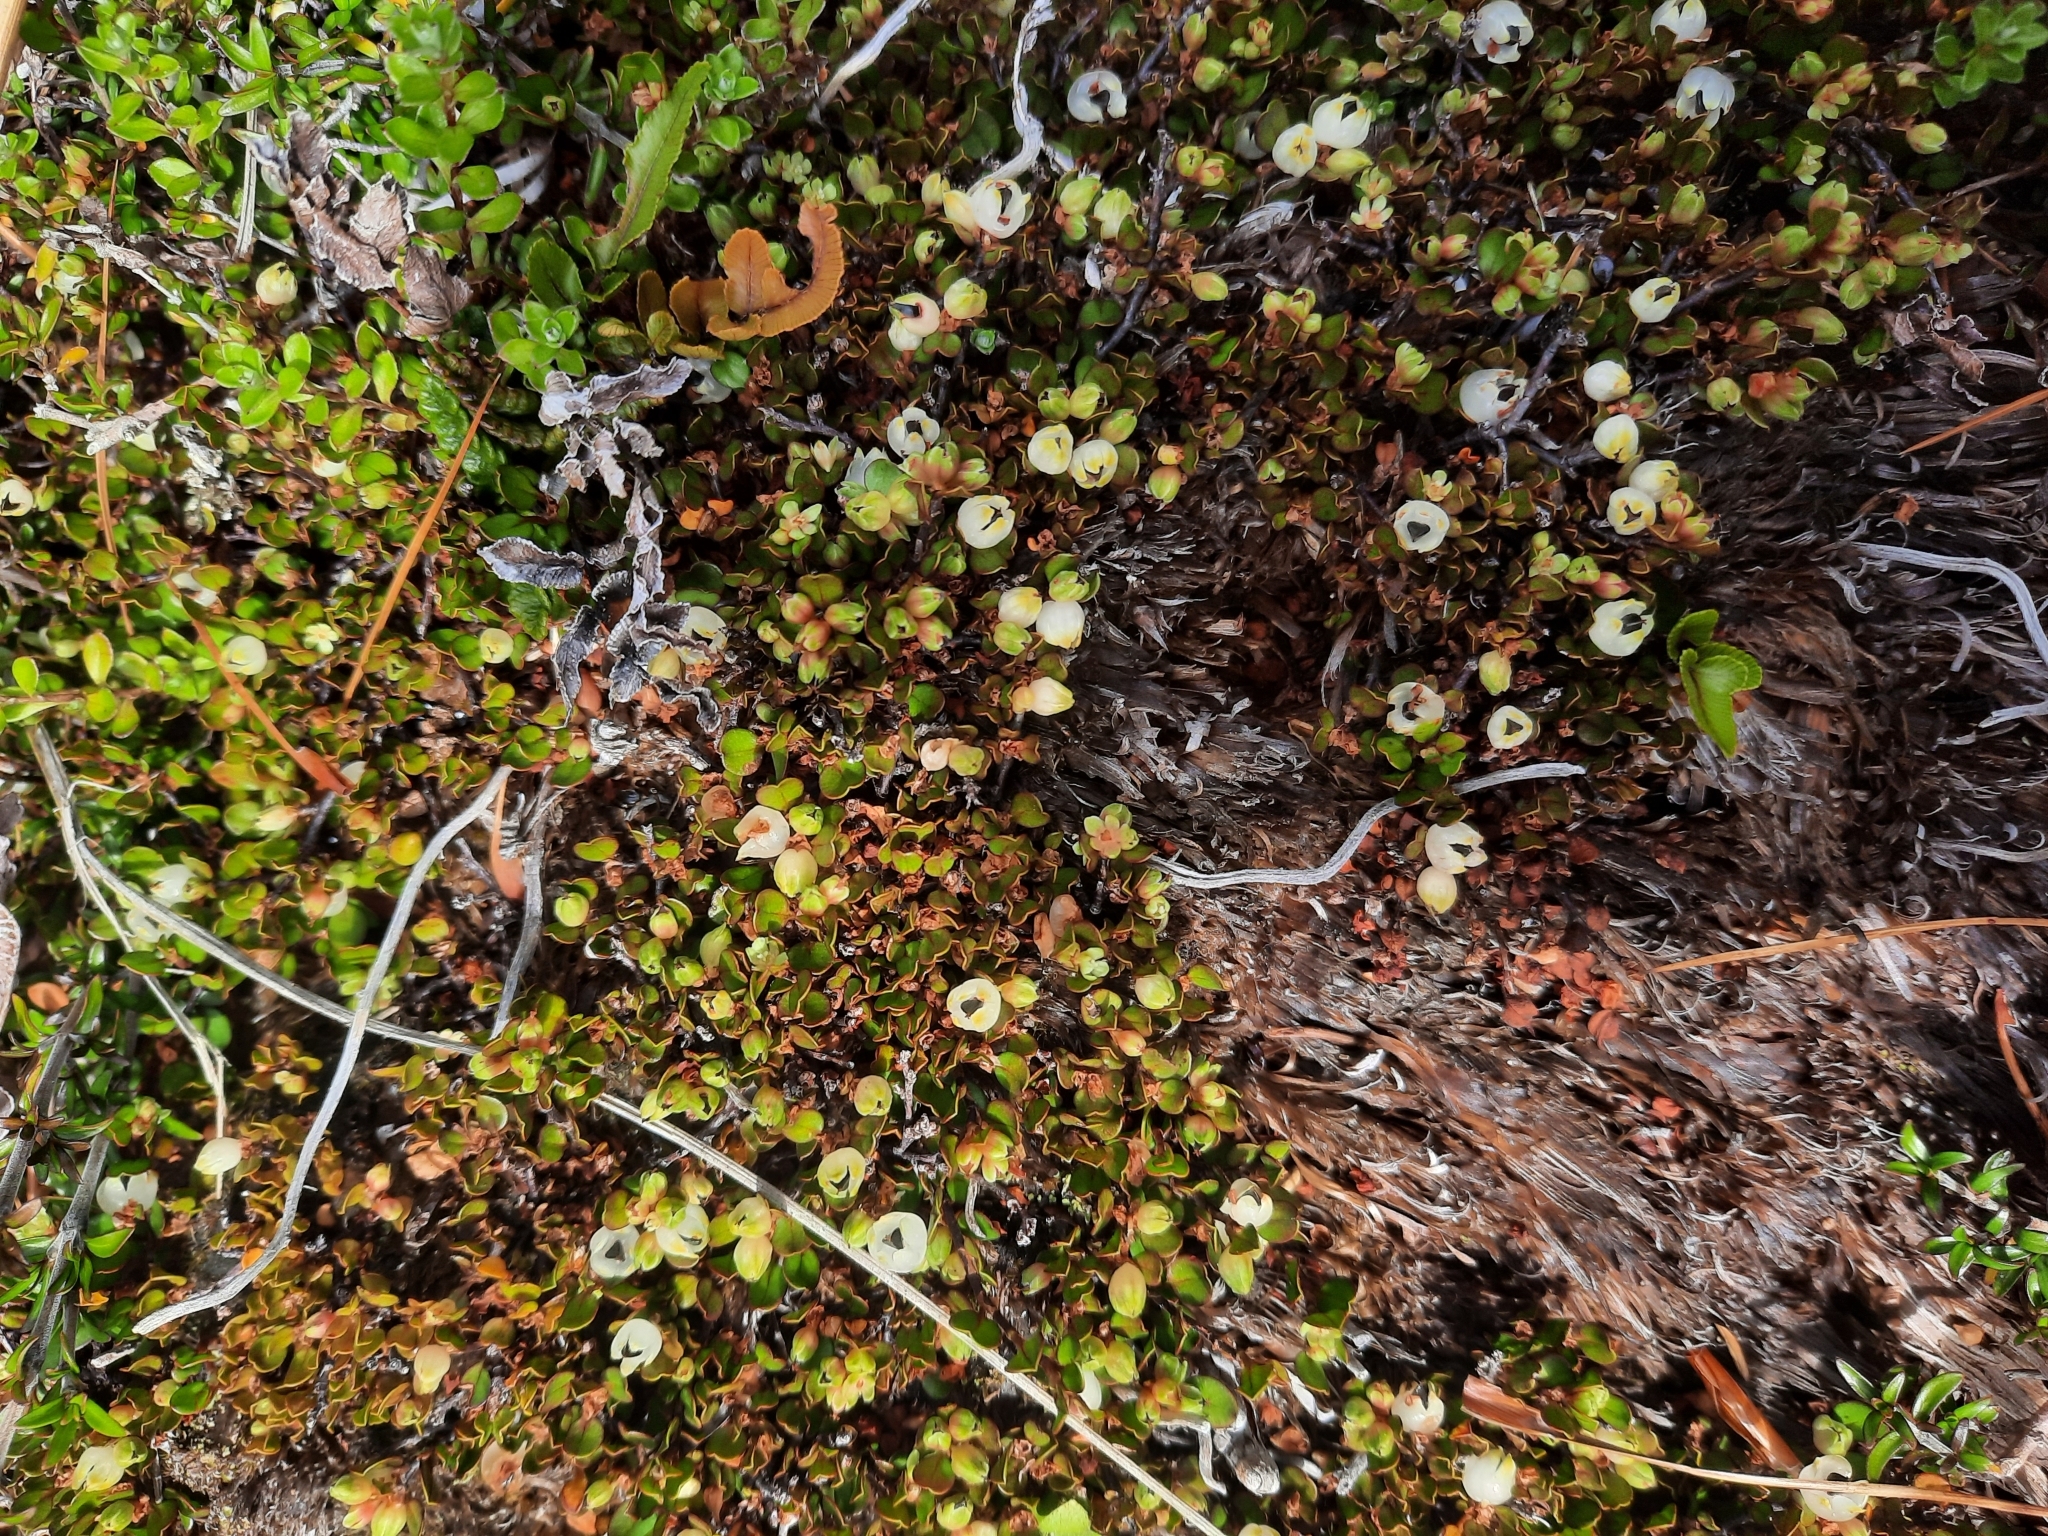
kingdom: Plantae
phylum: Tracheophyta
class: Magnoliopsida
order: Caryophyllales
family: Polygonaceae
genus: Muehlenbeckia
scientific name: Muehlenbeckia axillaris
